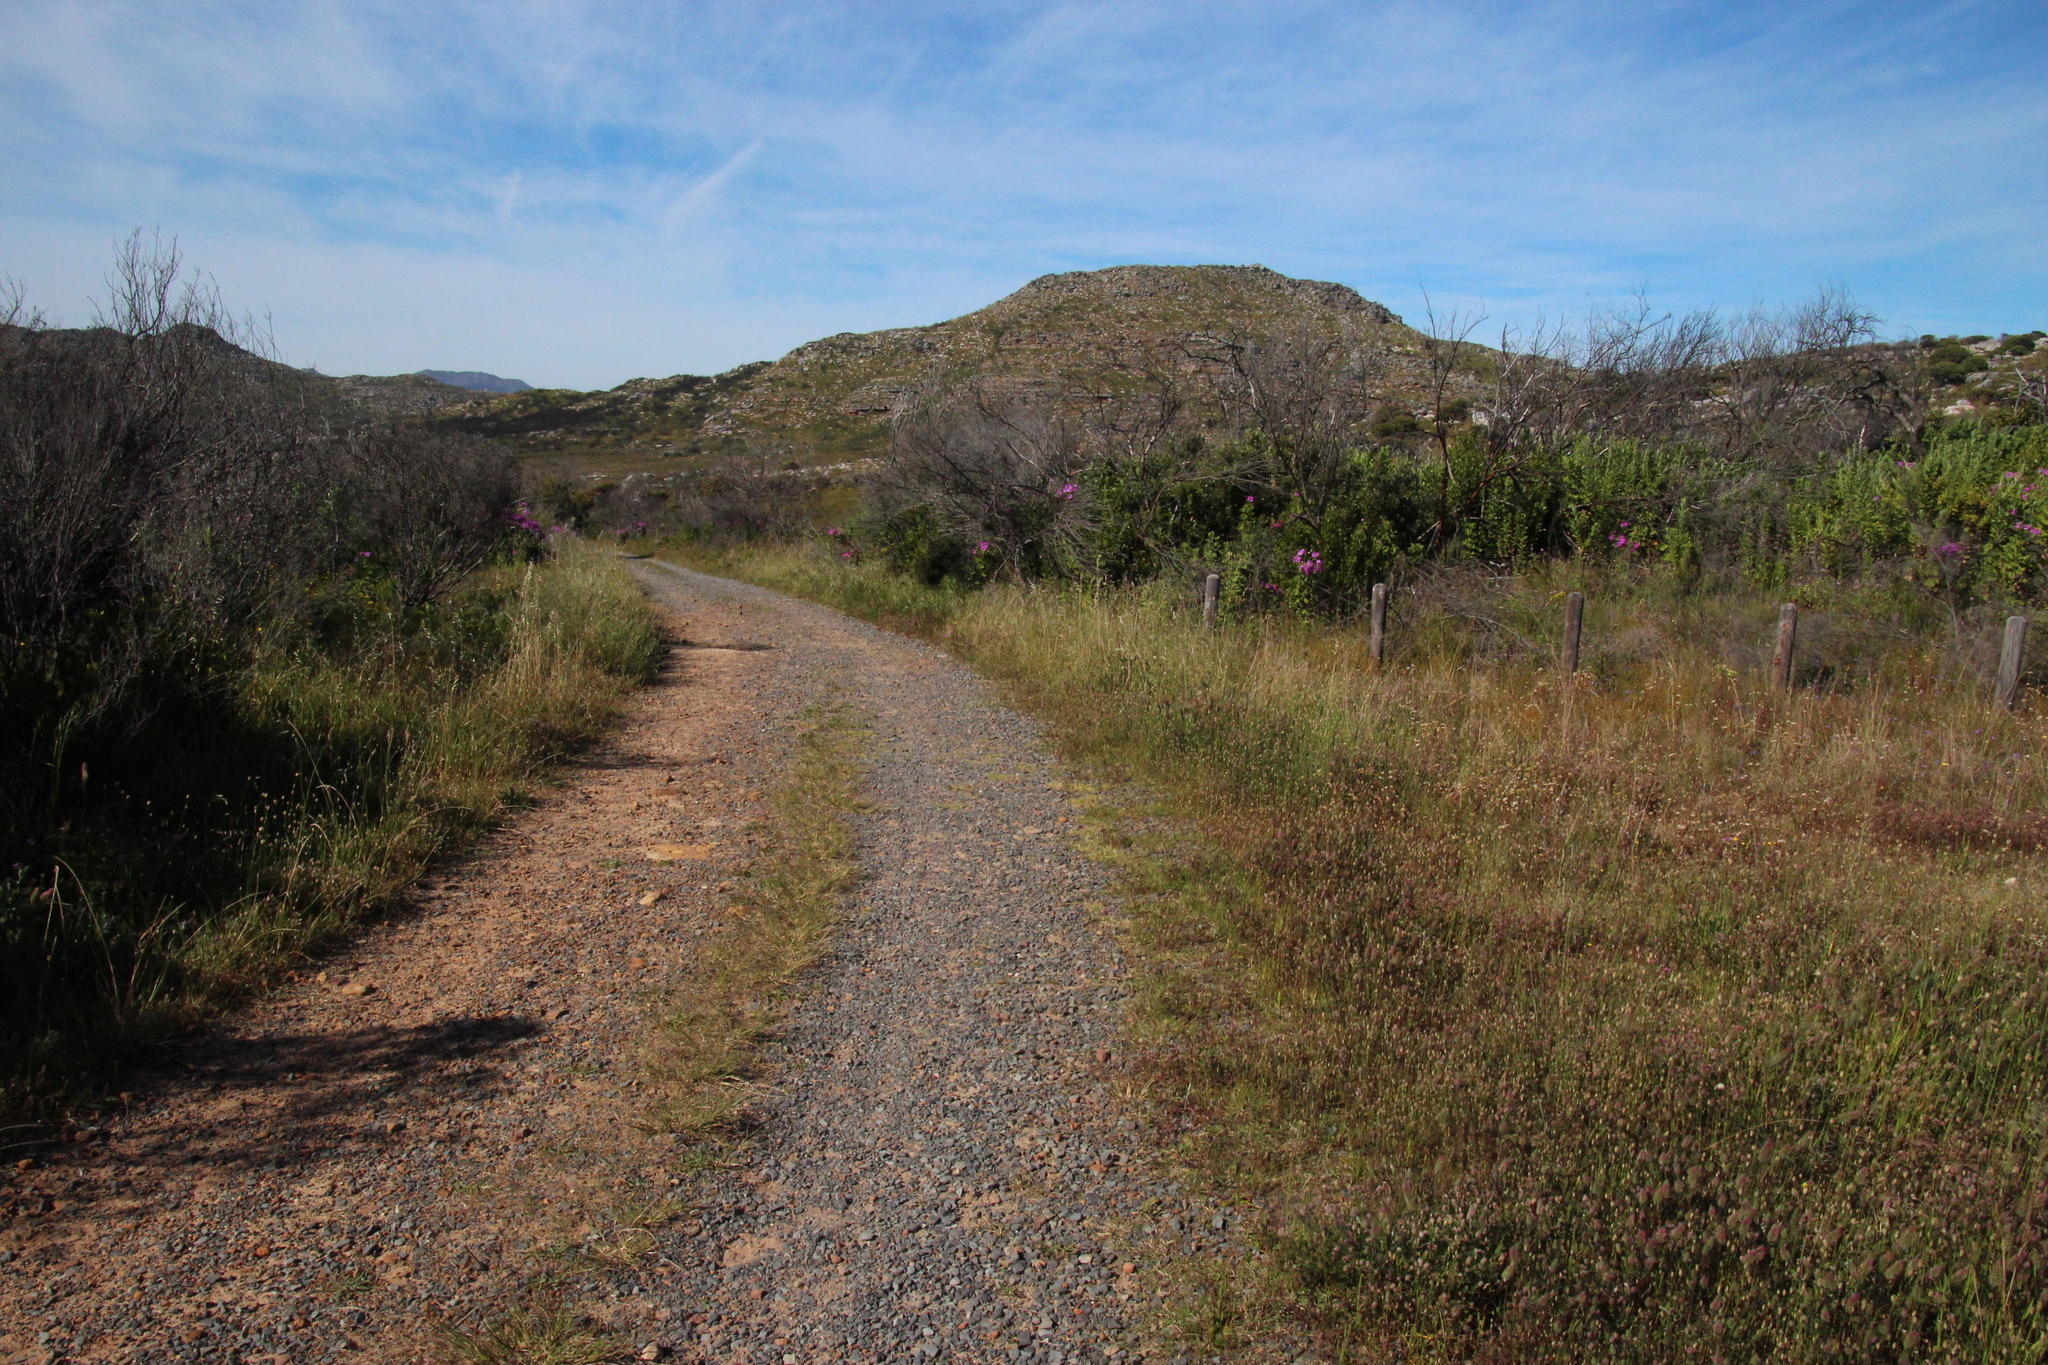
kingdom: Plantae
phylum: Tracheophyta
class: Magnoliopsida
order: Fabales
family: Fabaceae
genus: Trifolium
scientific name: Trifolium angustifolium
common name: Narrow clover
